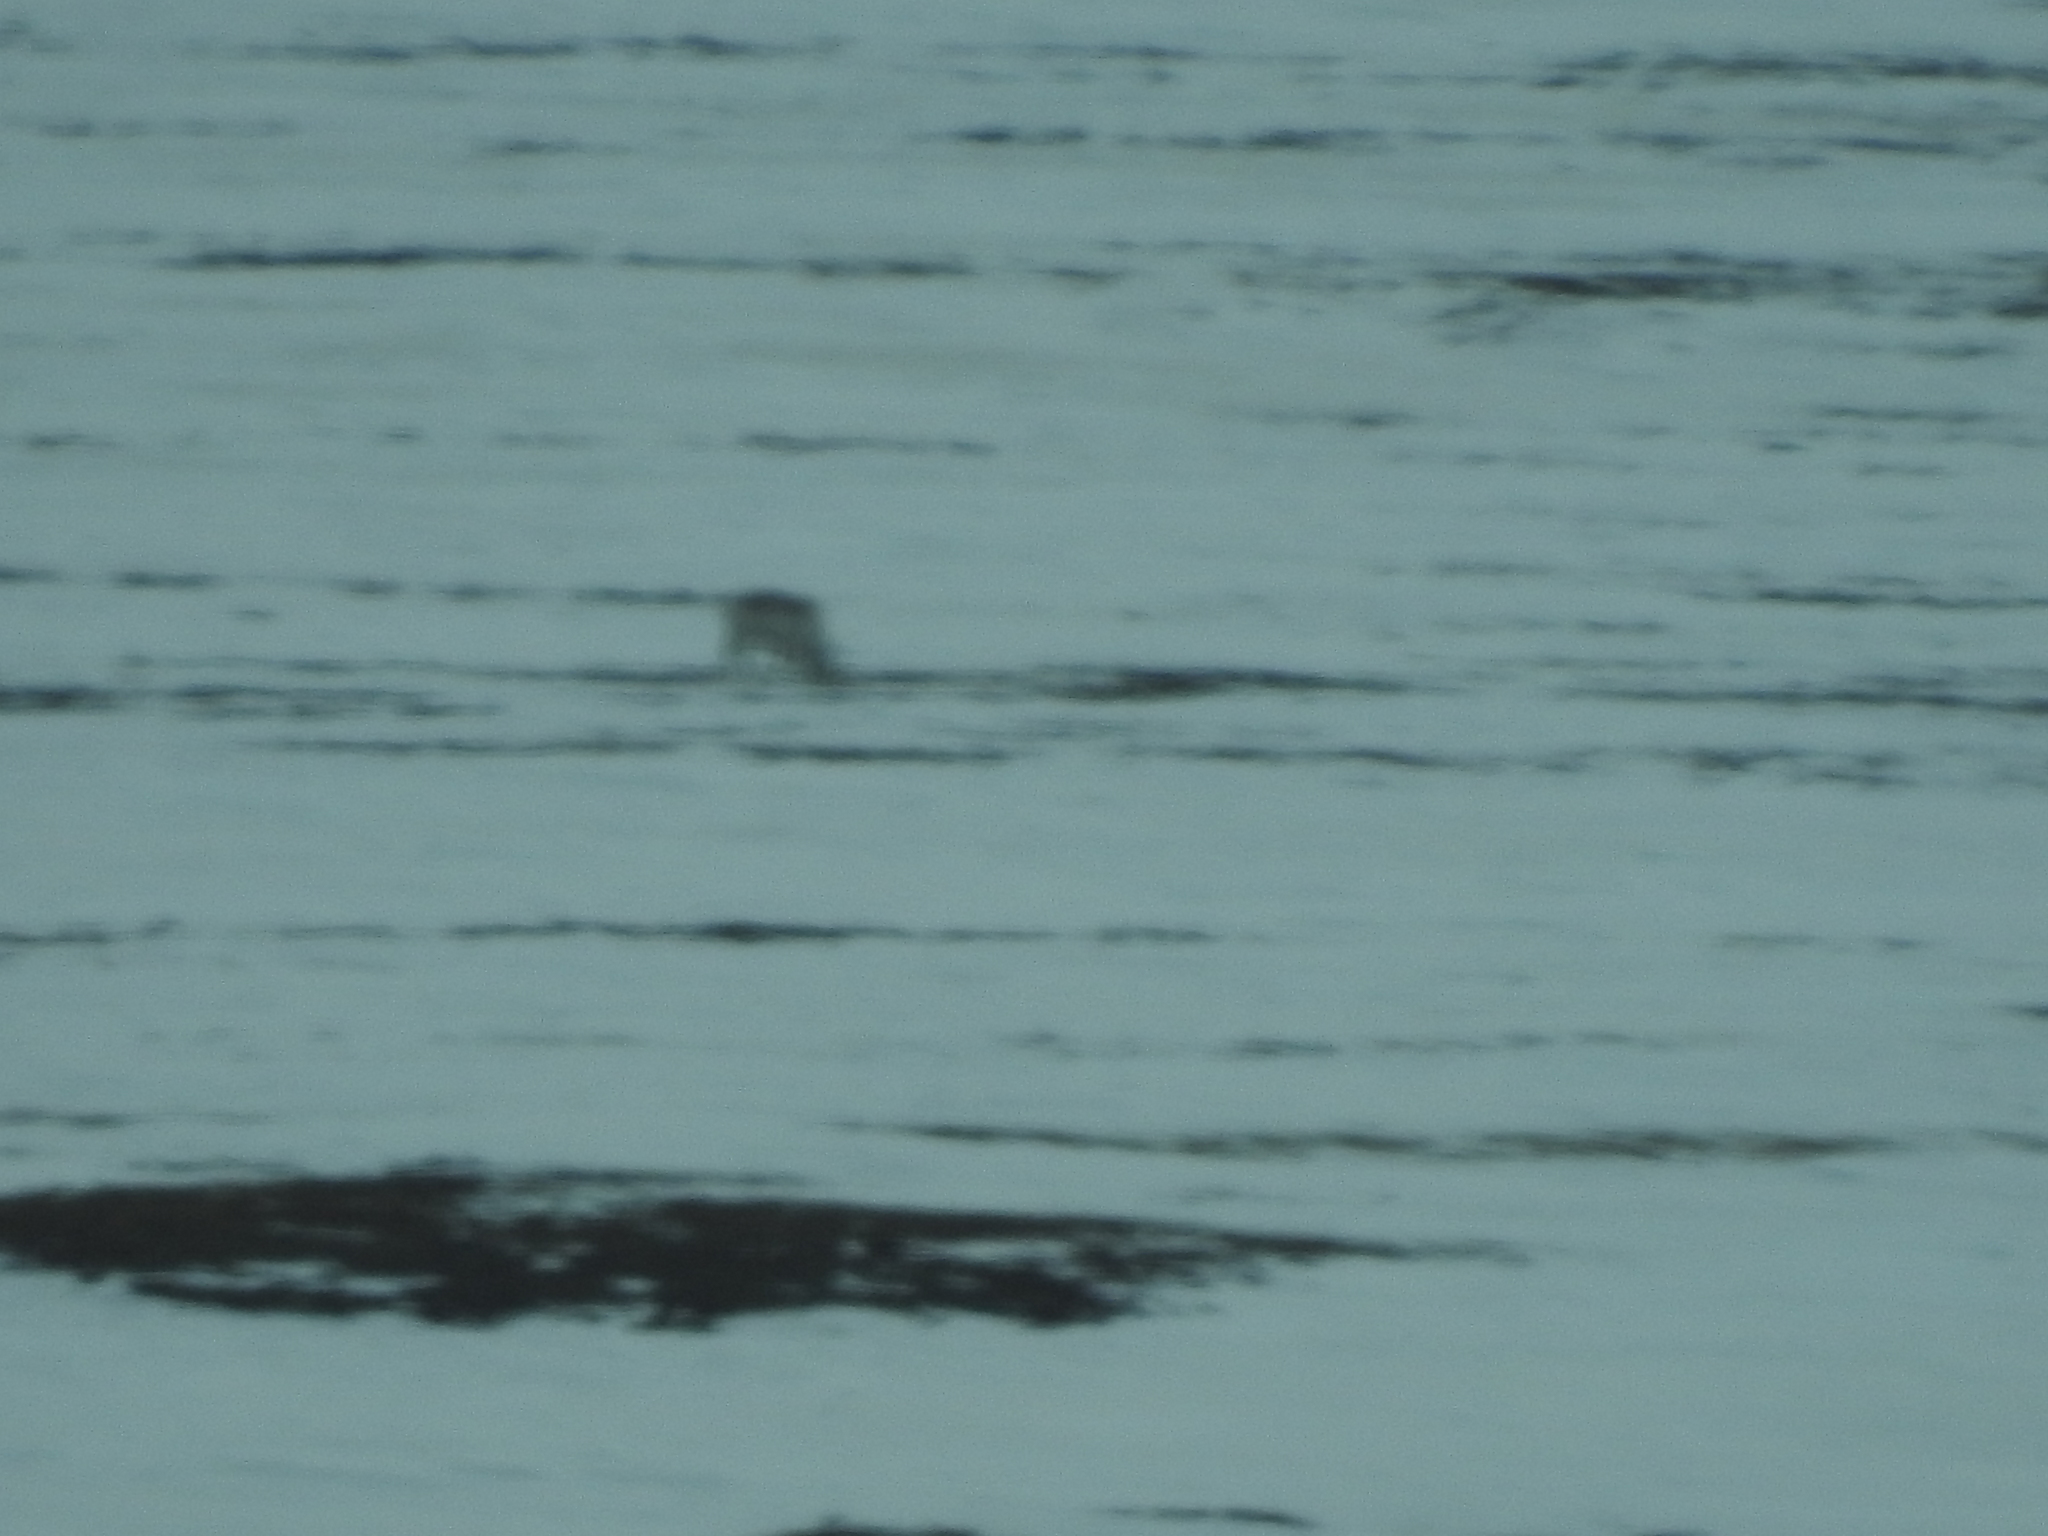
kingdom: Animalia
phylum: Chordata
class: Mammalia
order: Artiodactyla
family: Cervidae
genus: Rangifer
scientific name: Rangifer tarandus
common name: Reindeer
